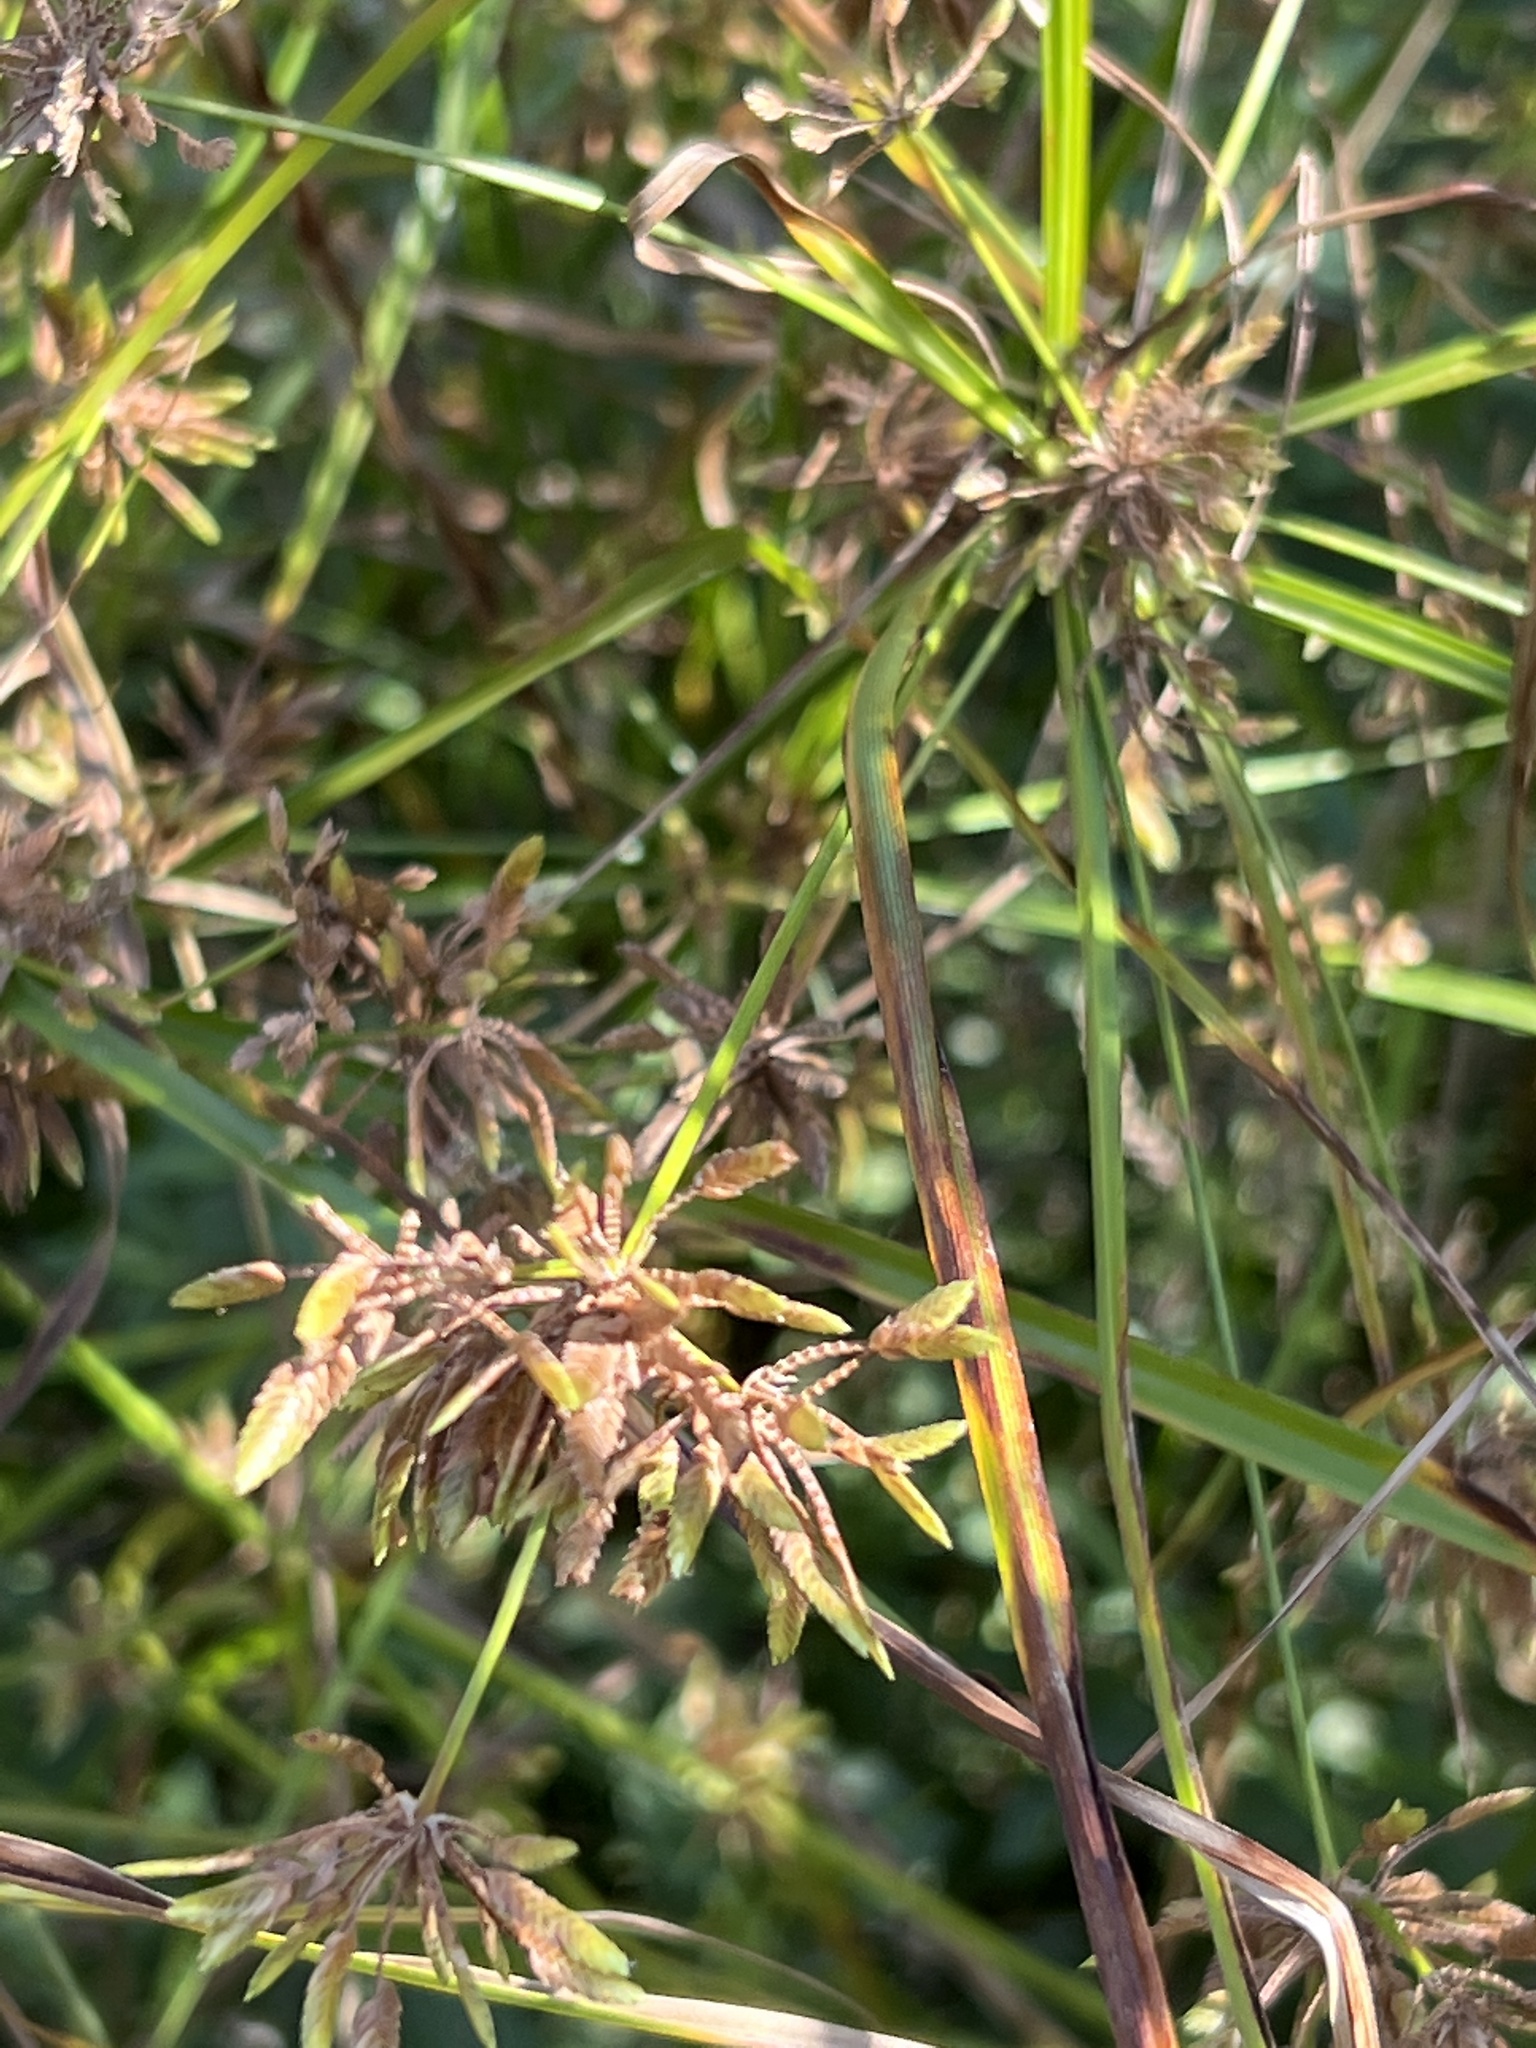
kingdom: Plantae
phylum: Tracheophyta
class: Liliopsida
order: Poales
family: Cyperaceae
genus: Cyperus
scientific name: Cyperus ochraceus
